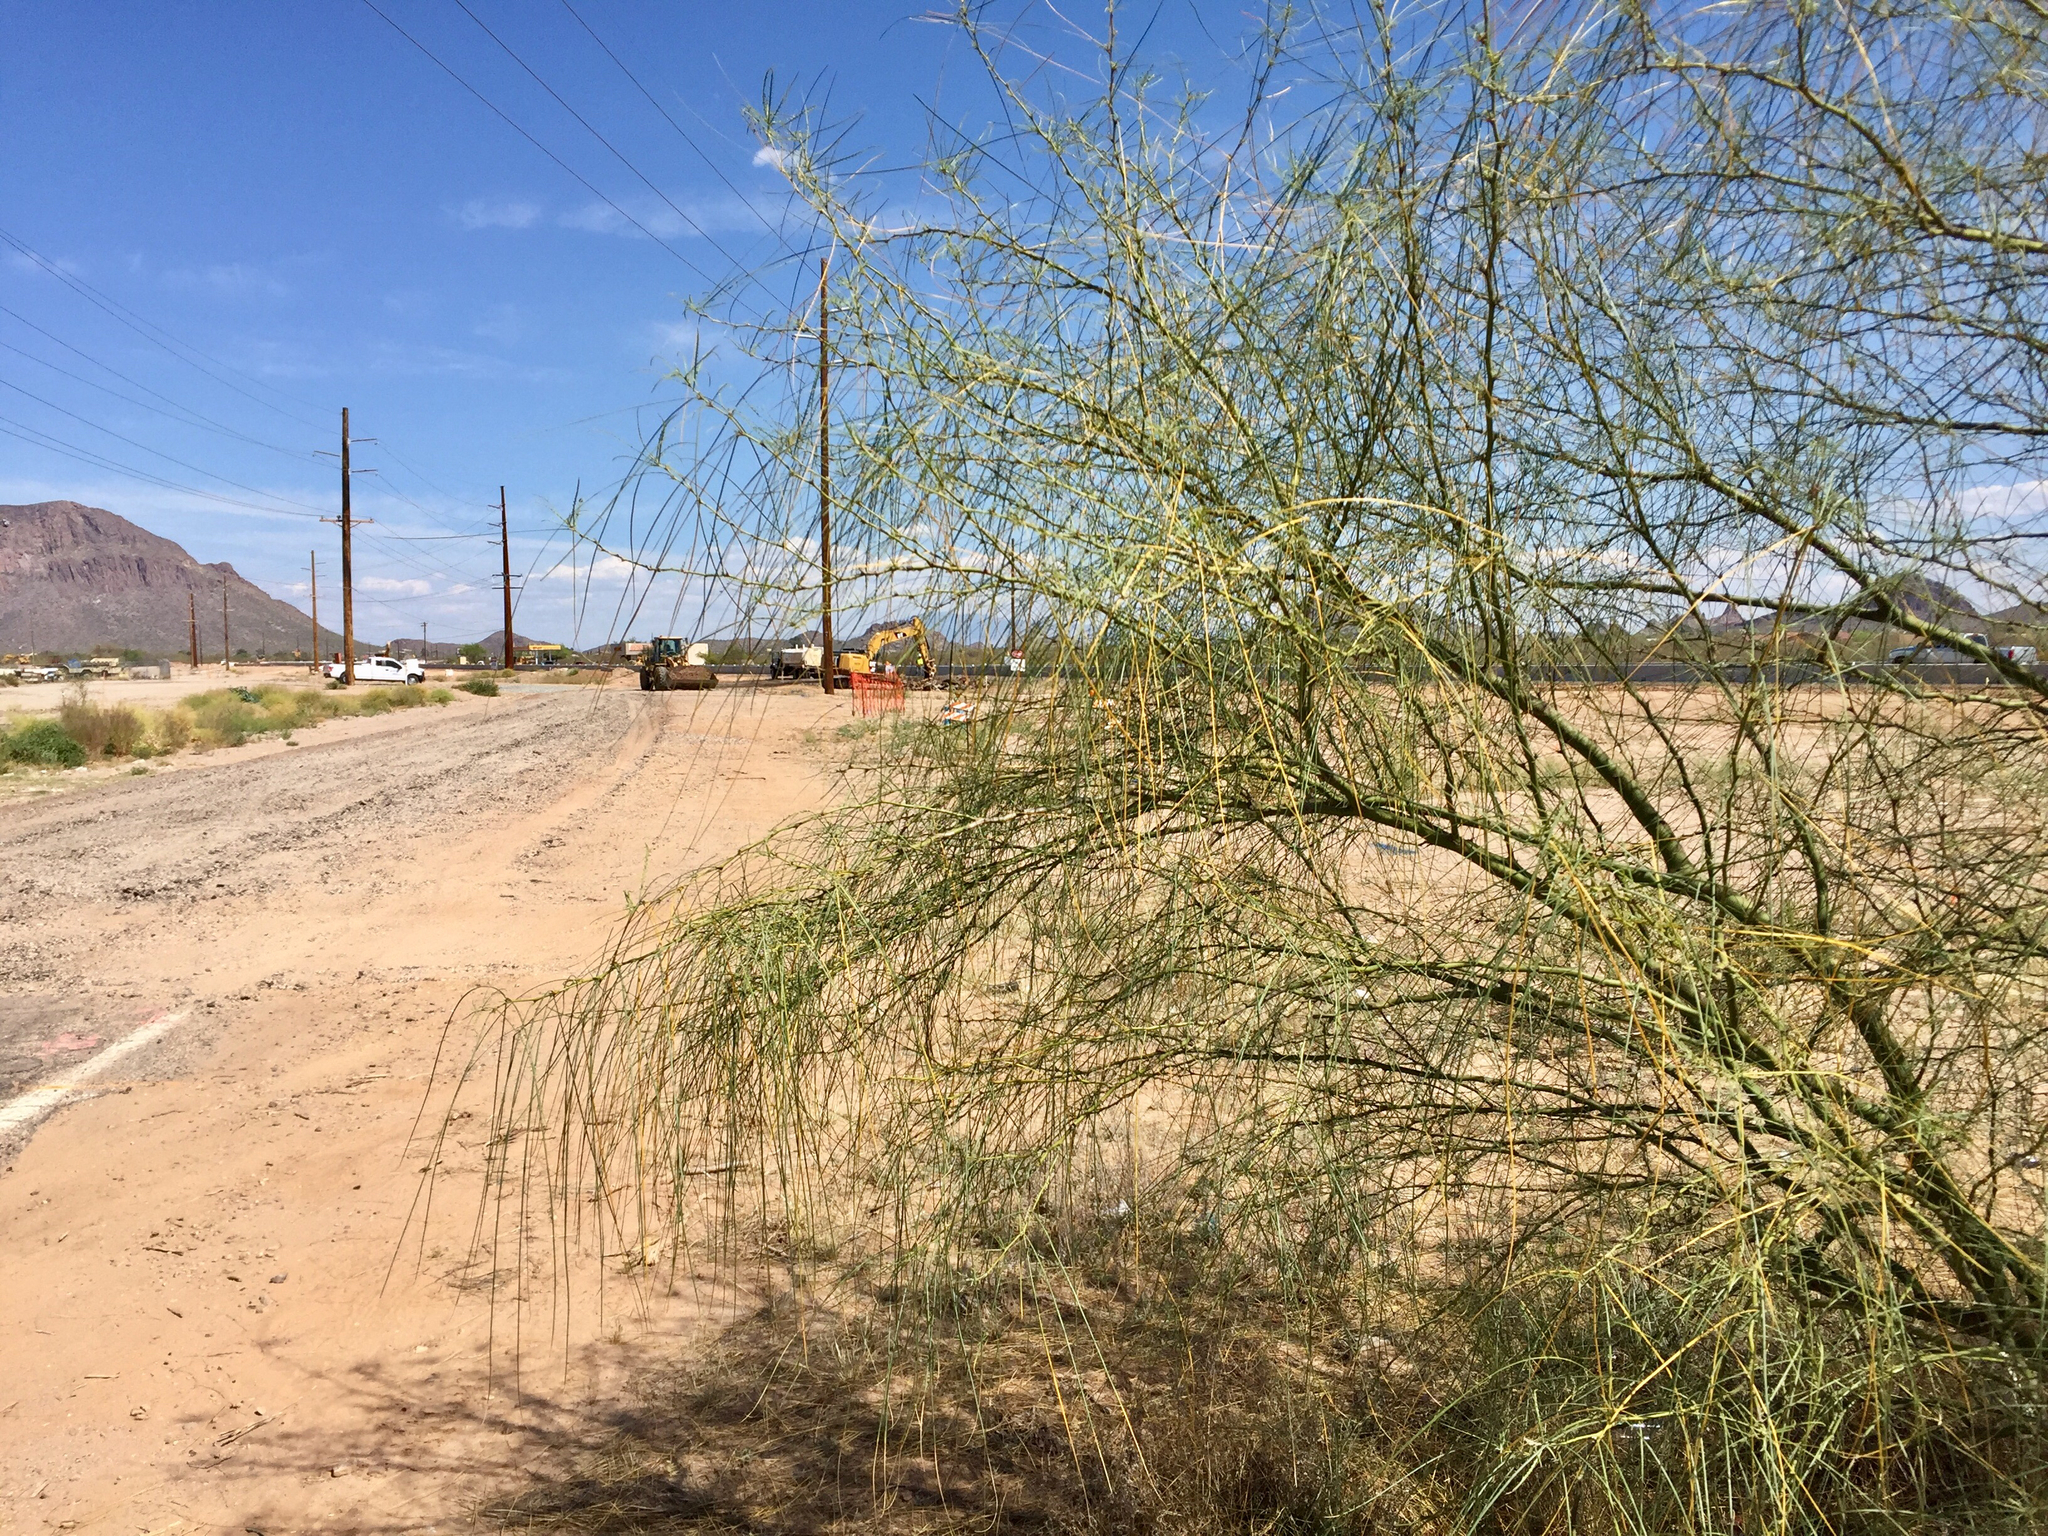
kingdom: Plantae
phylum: Tracheophyta
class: Magnoliopsida
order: Fabales
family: Fabaceae
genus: Parkinsonia
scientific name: Parkinsonia aculeata
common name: Jerusalem thorn
